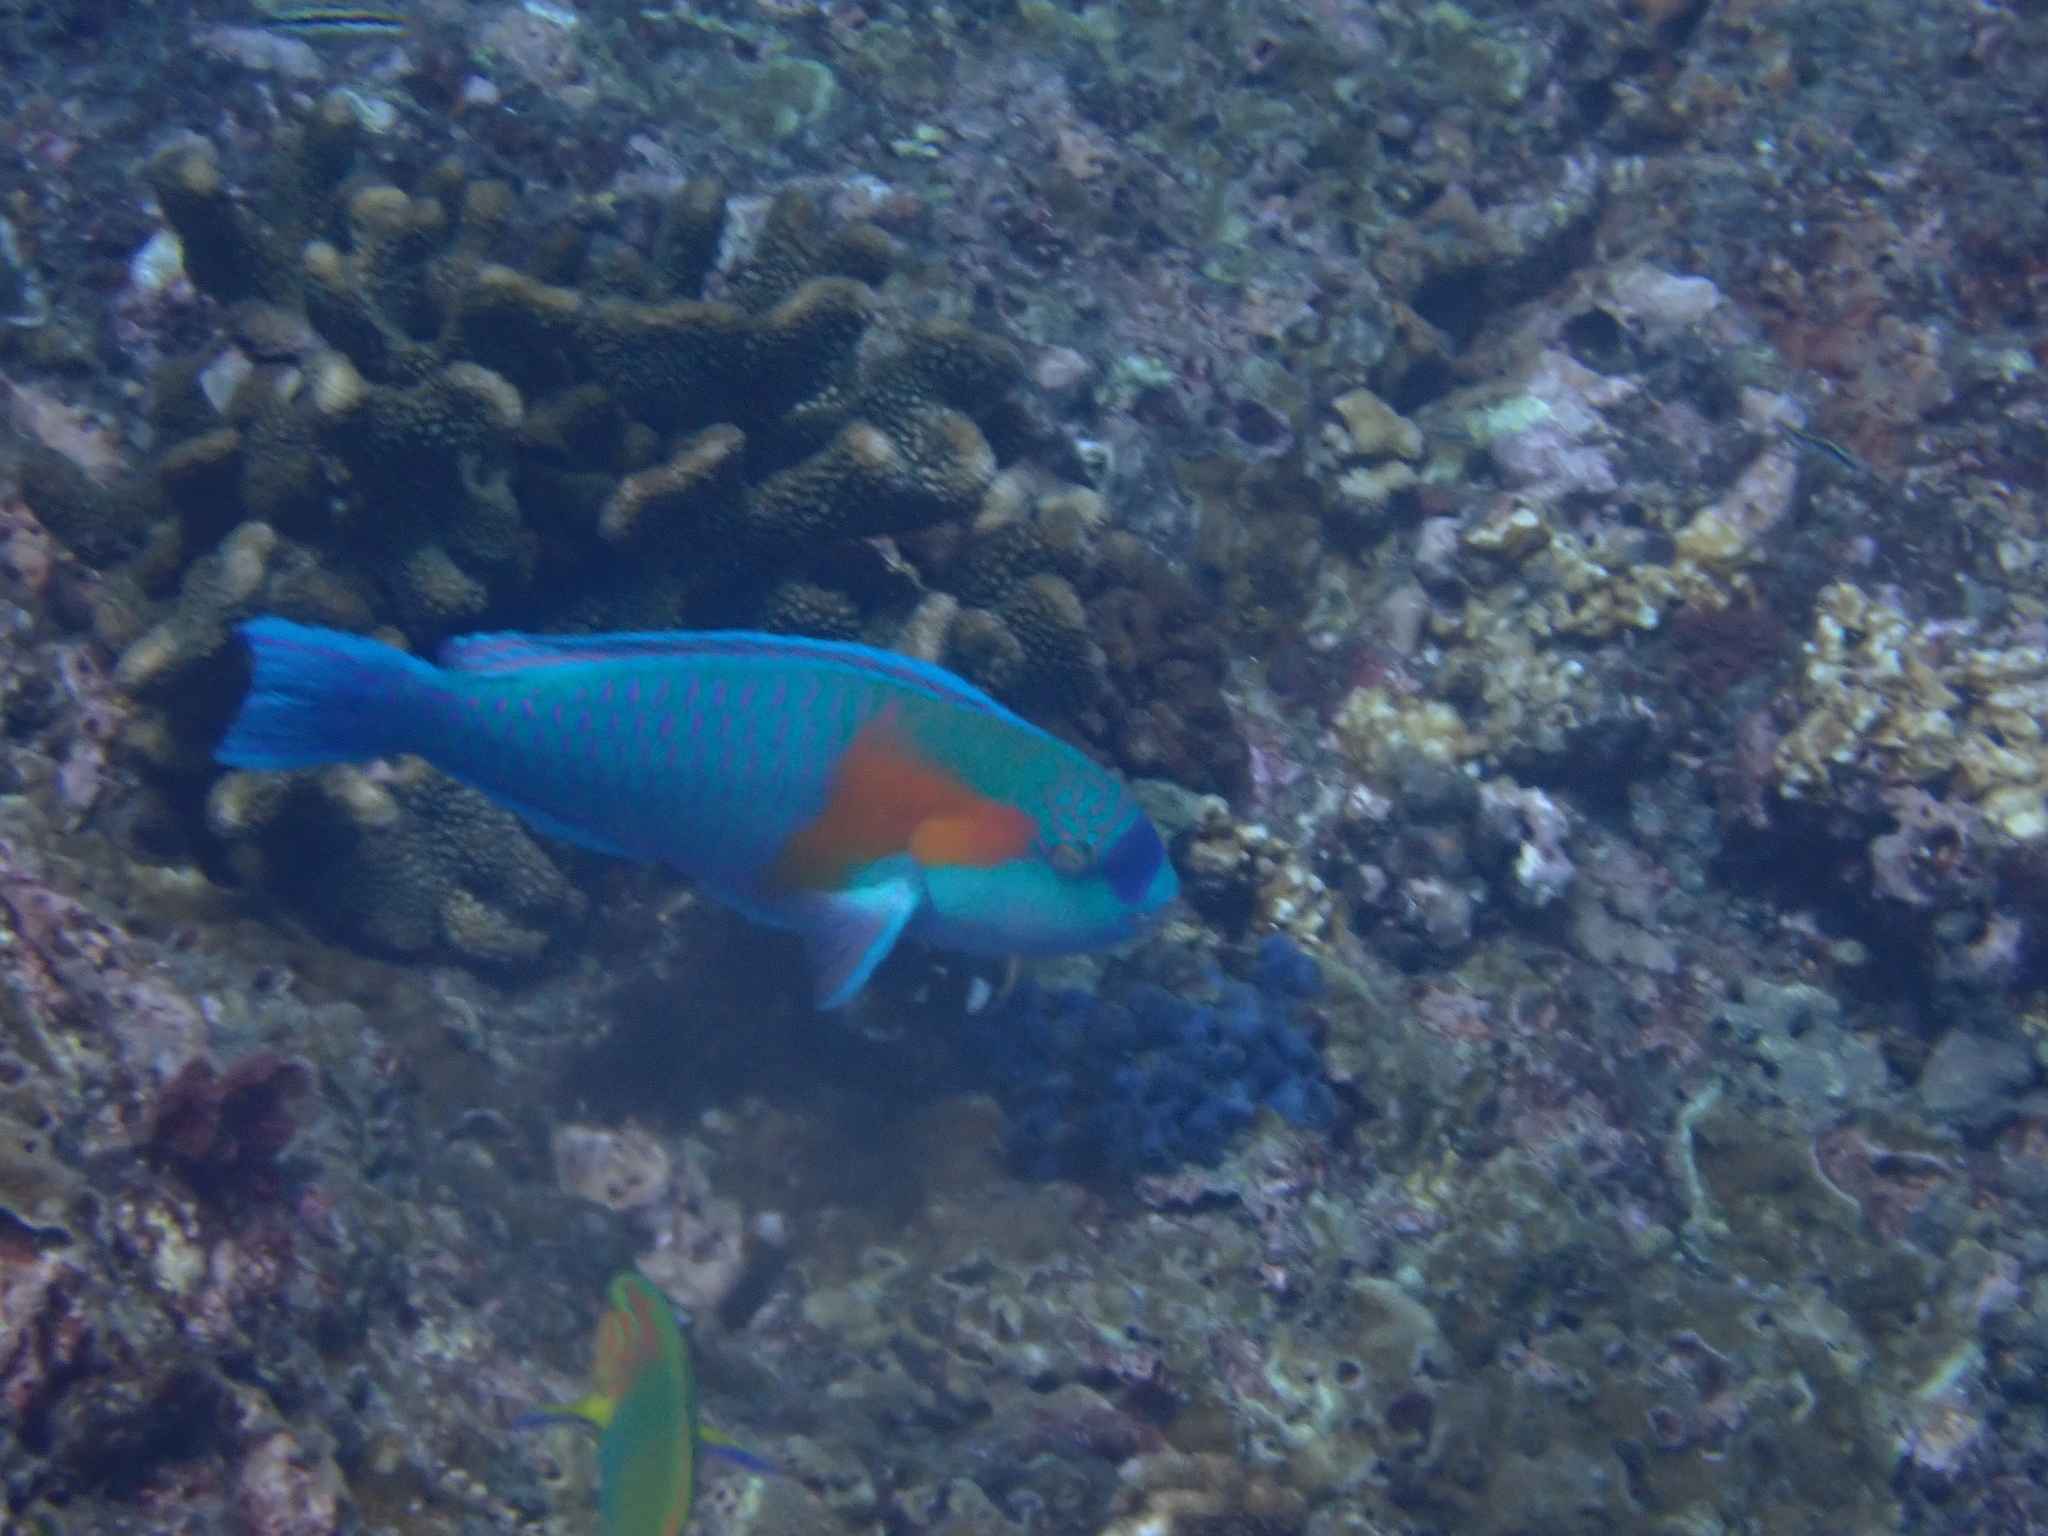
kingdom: Animalia
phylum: Chordata
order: Perciformes
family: Scaridae
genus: Chlorurus
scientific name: Chlorurus bowersi
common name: Bower's parrotfish
